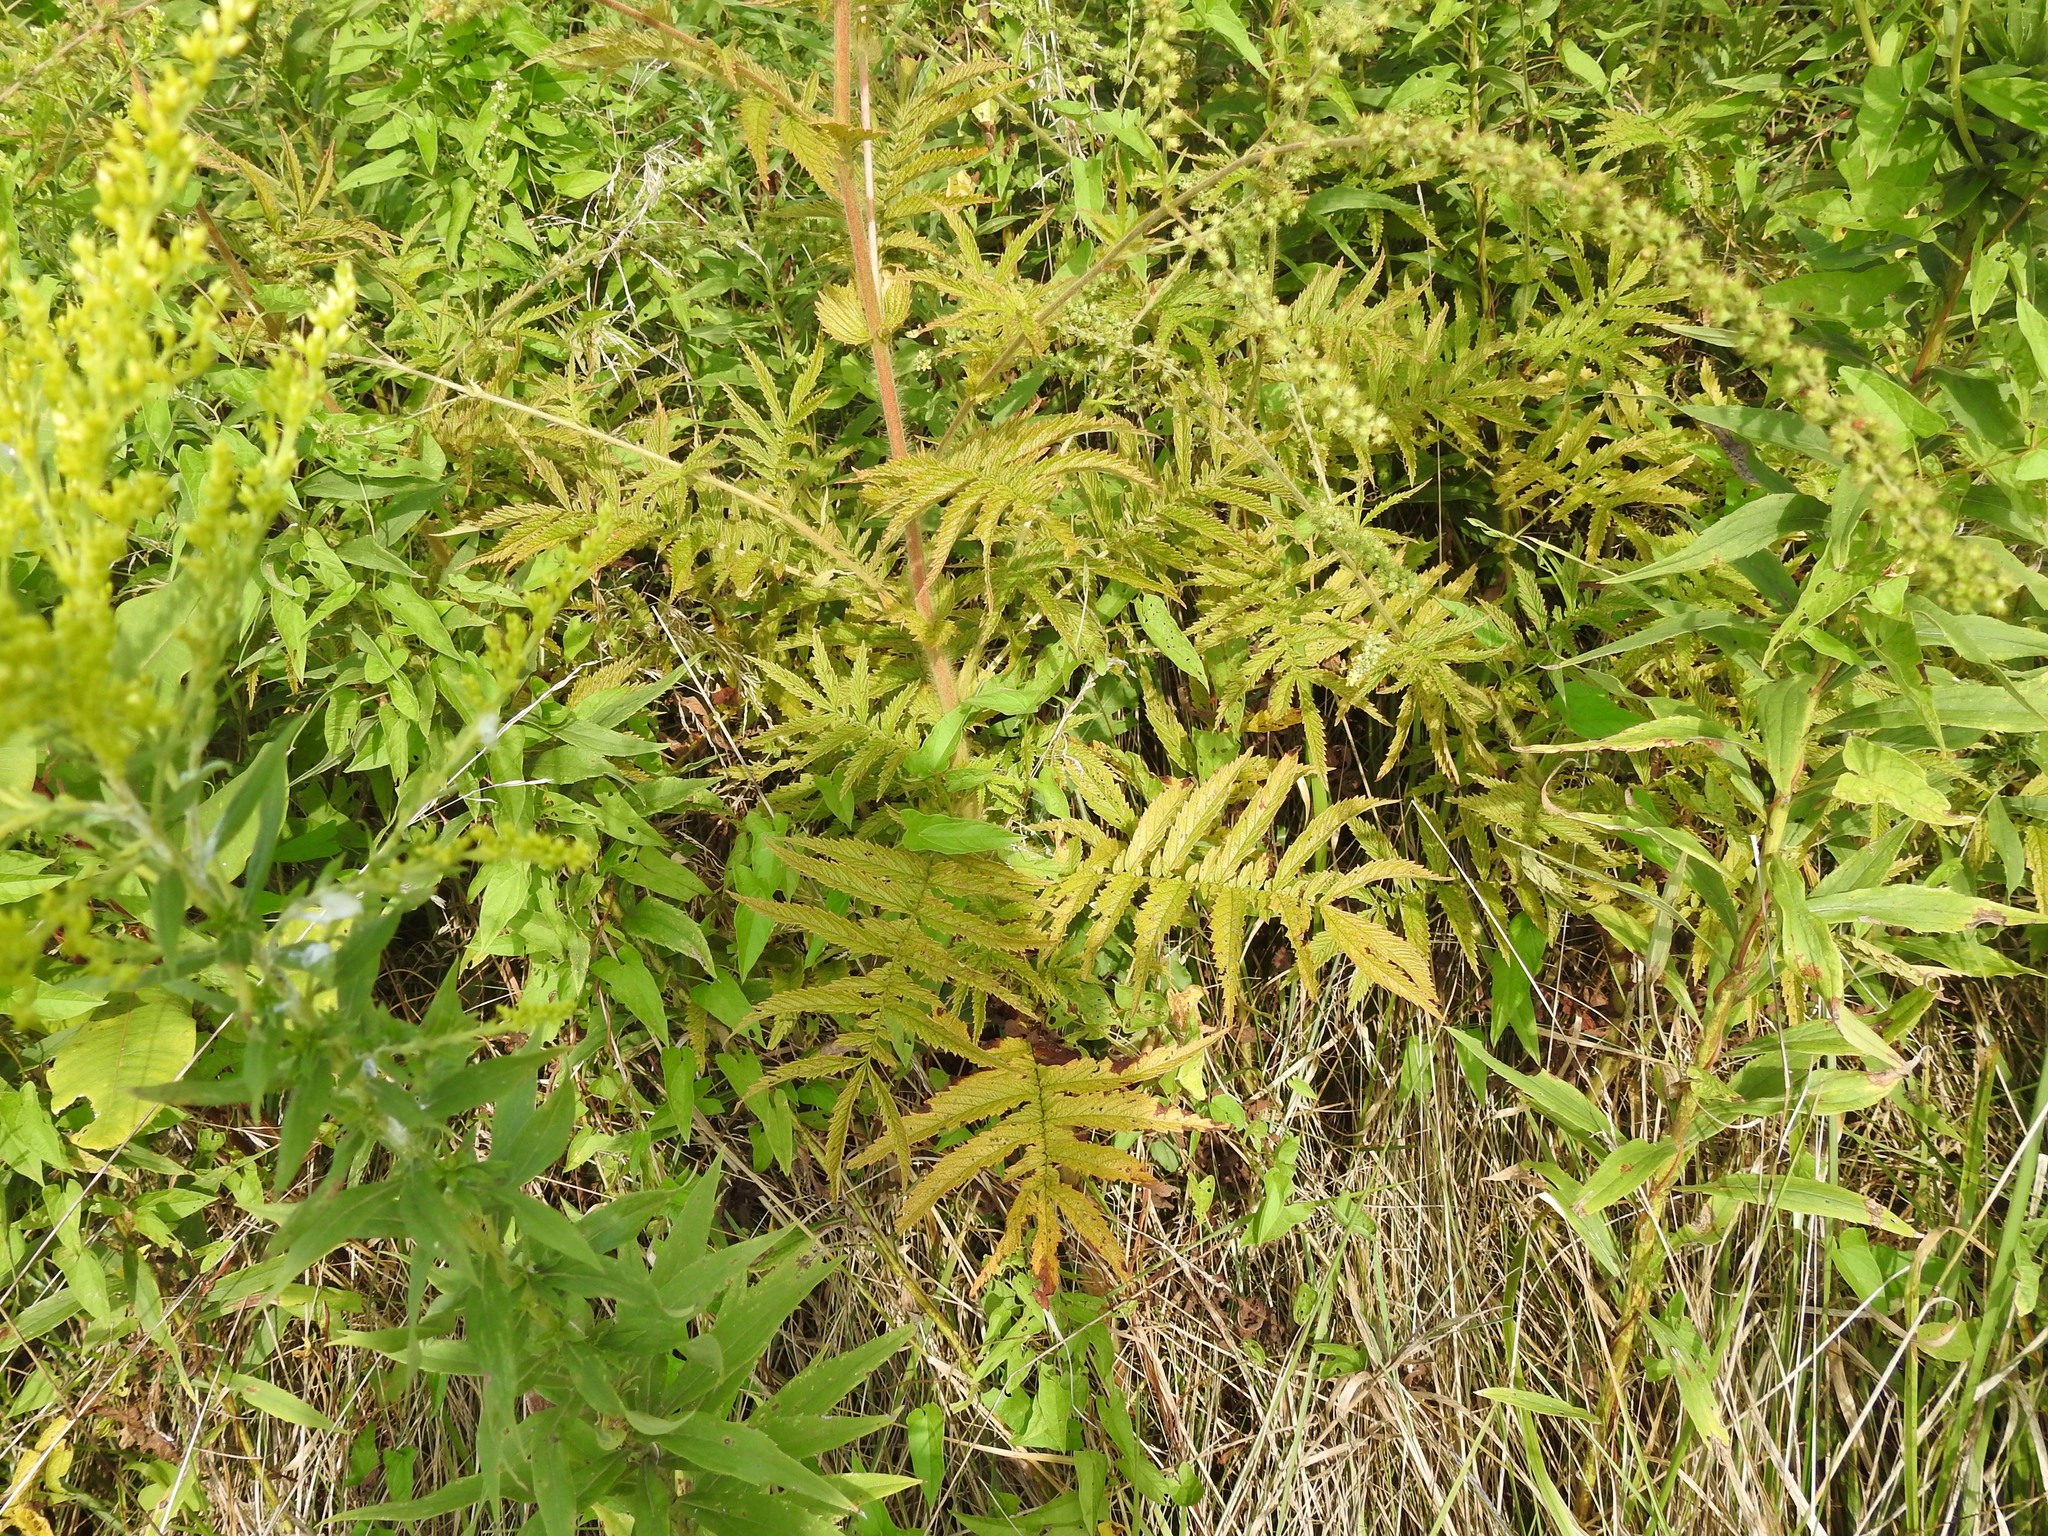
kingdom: Plantae
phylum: Tracheophyta
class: Magnoliopsida
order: Rosales
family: Rosaceae
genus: Agrimonia
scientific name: Agrimonia parviflora
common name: Harvest-lice
